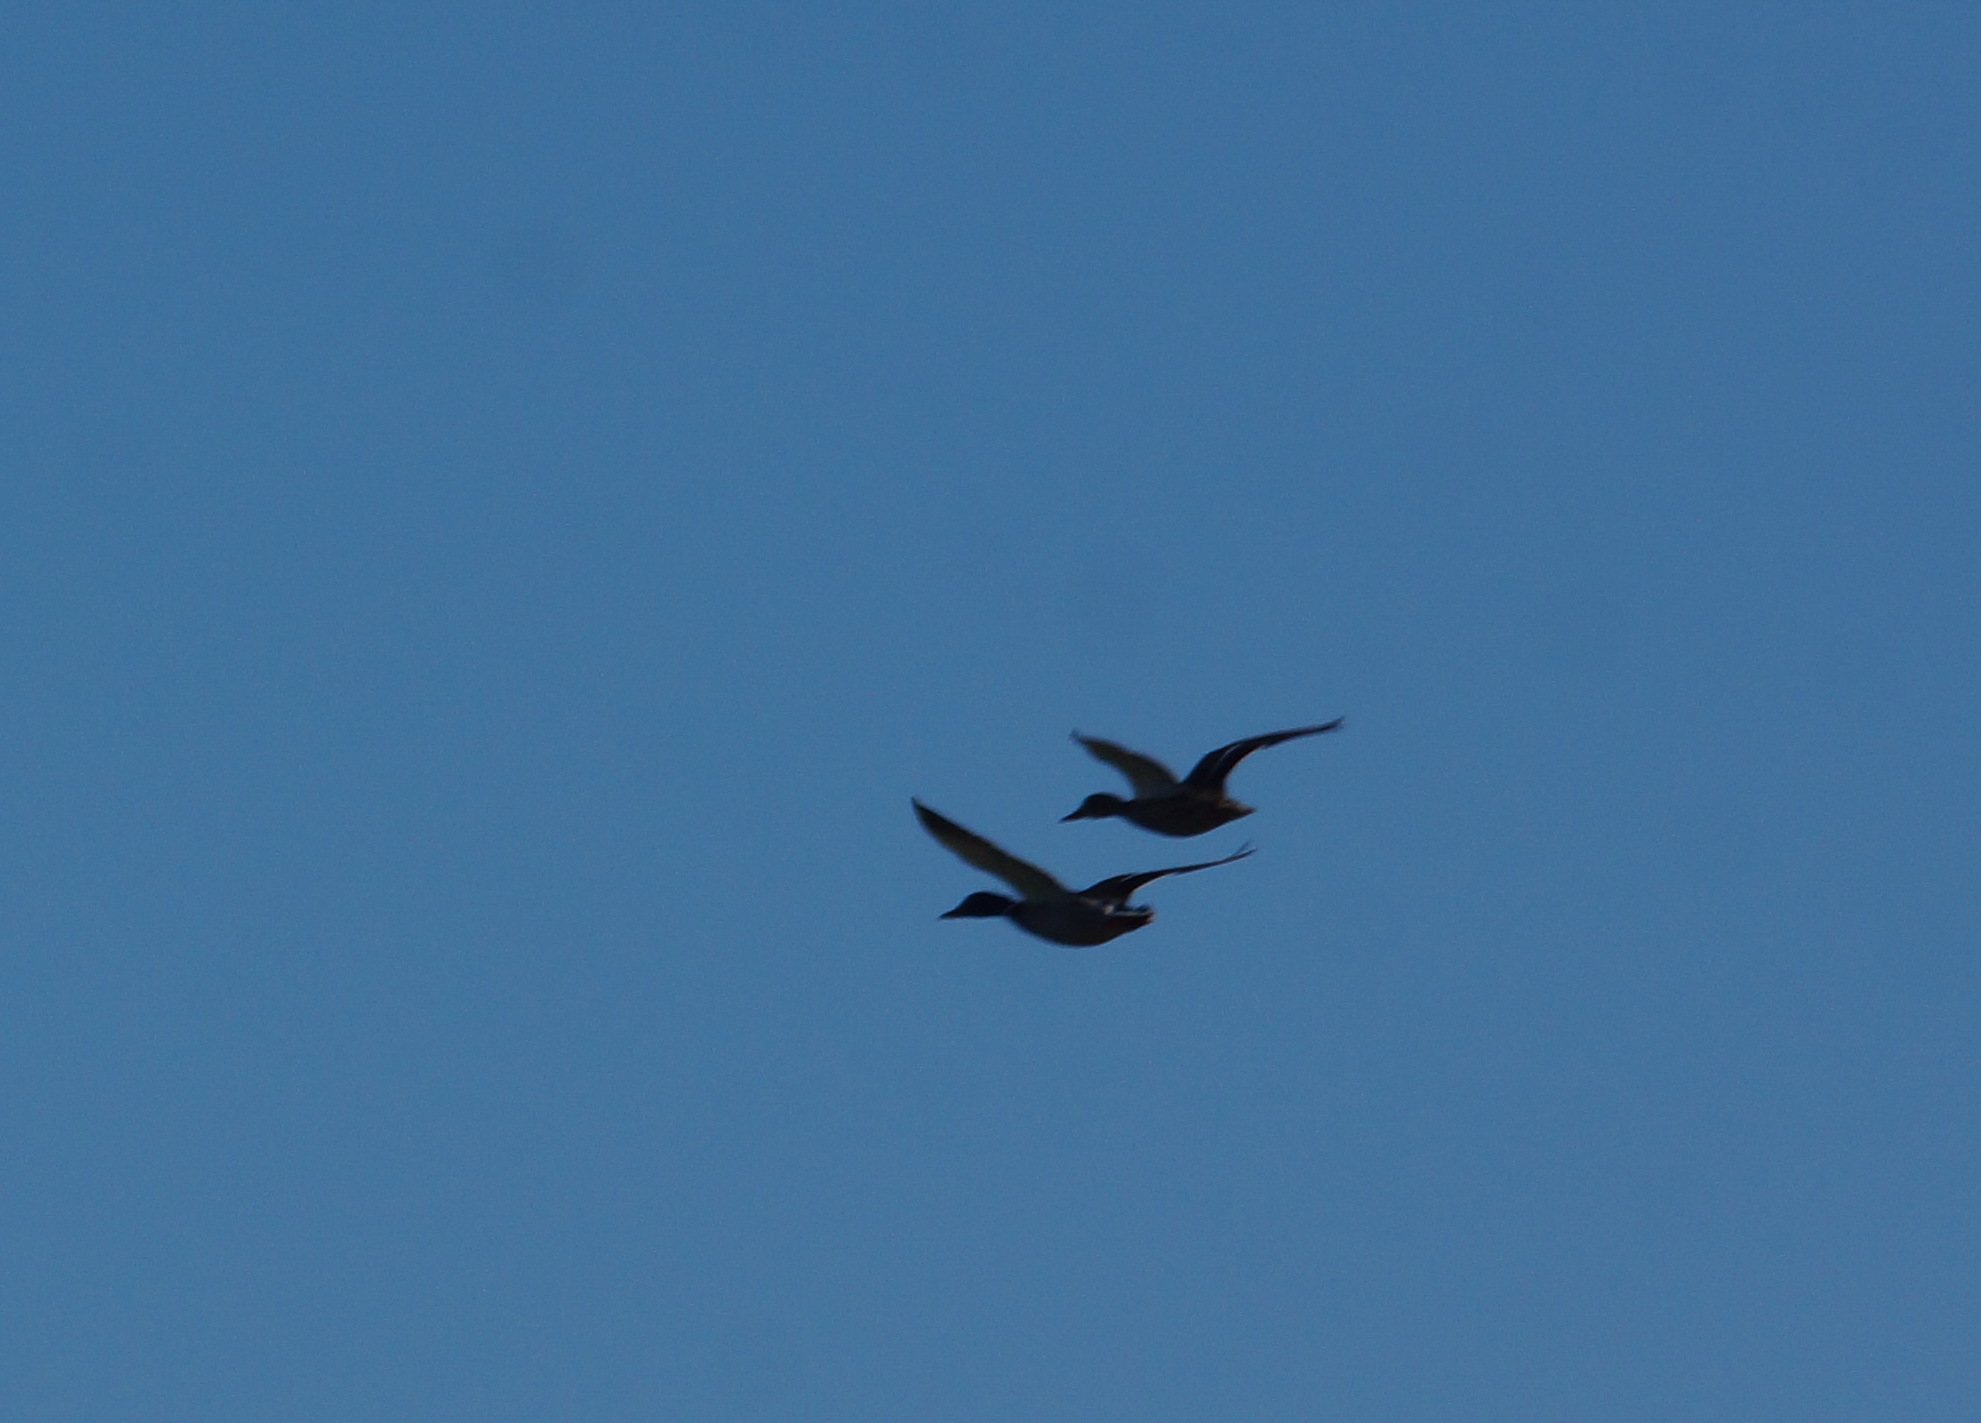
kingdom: Animalia
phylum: Chordata
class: Aves
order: Anseriformes
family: Anatidae
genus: Anas
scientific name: Anas platyrhynchos
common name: Mallard
